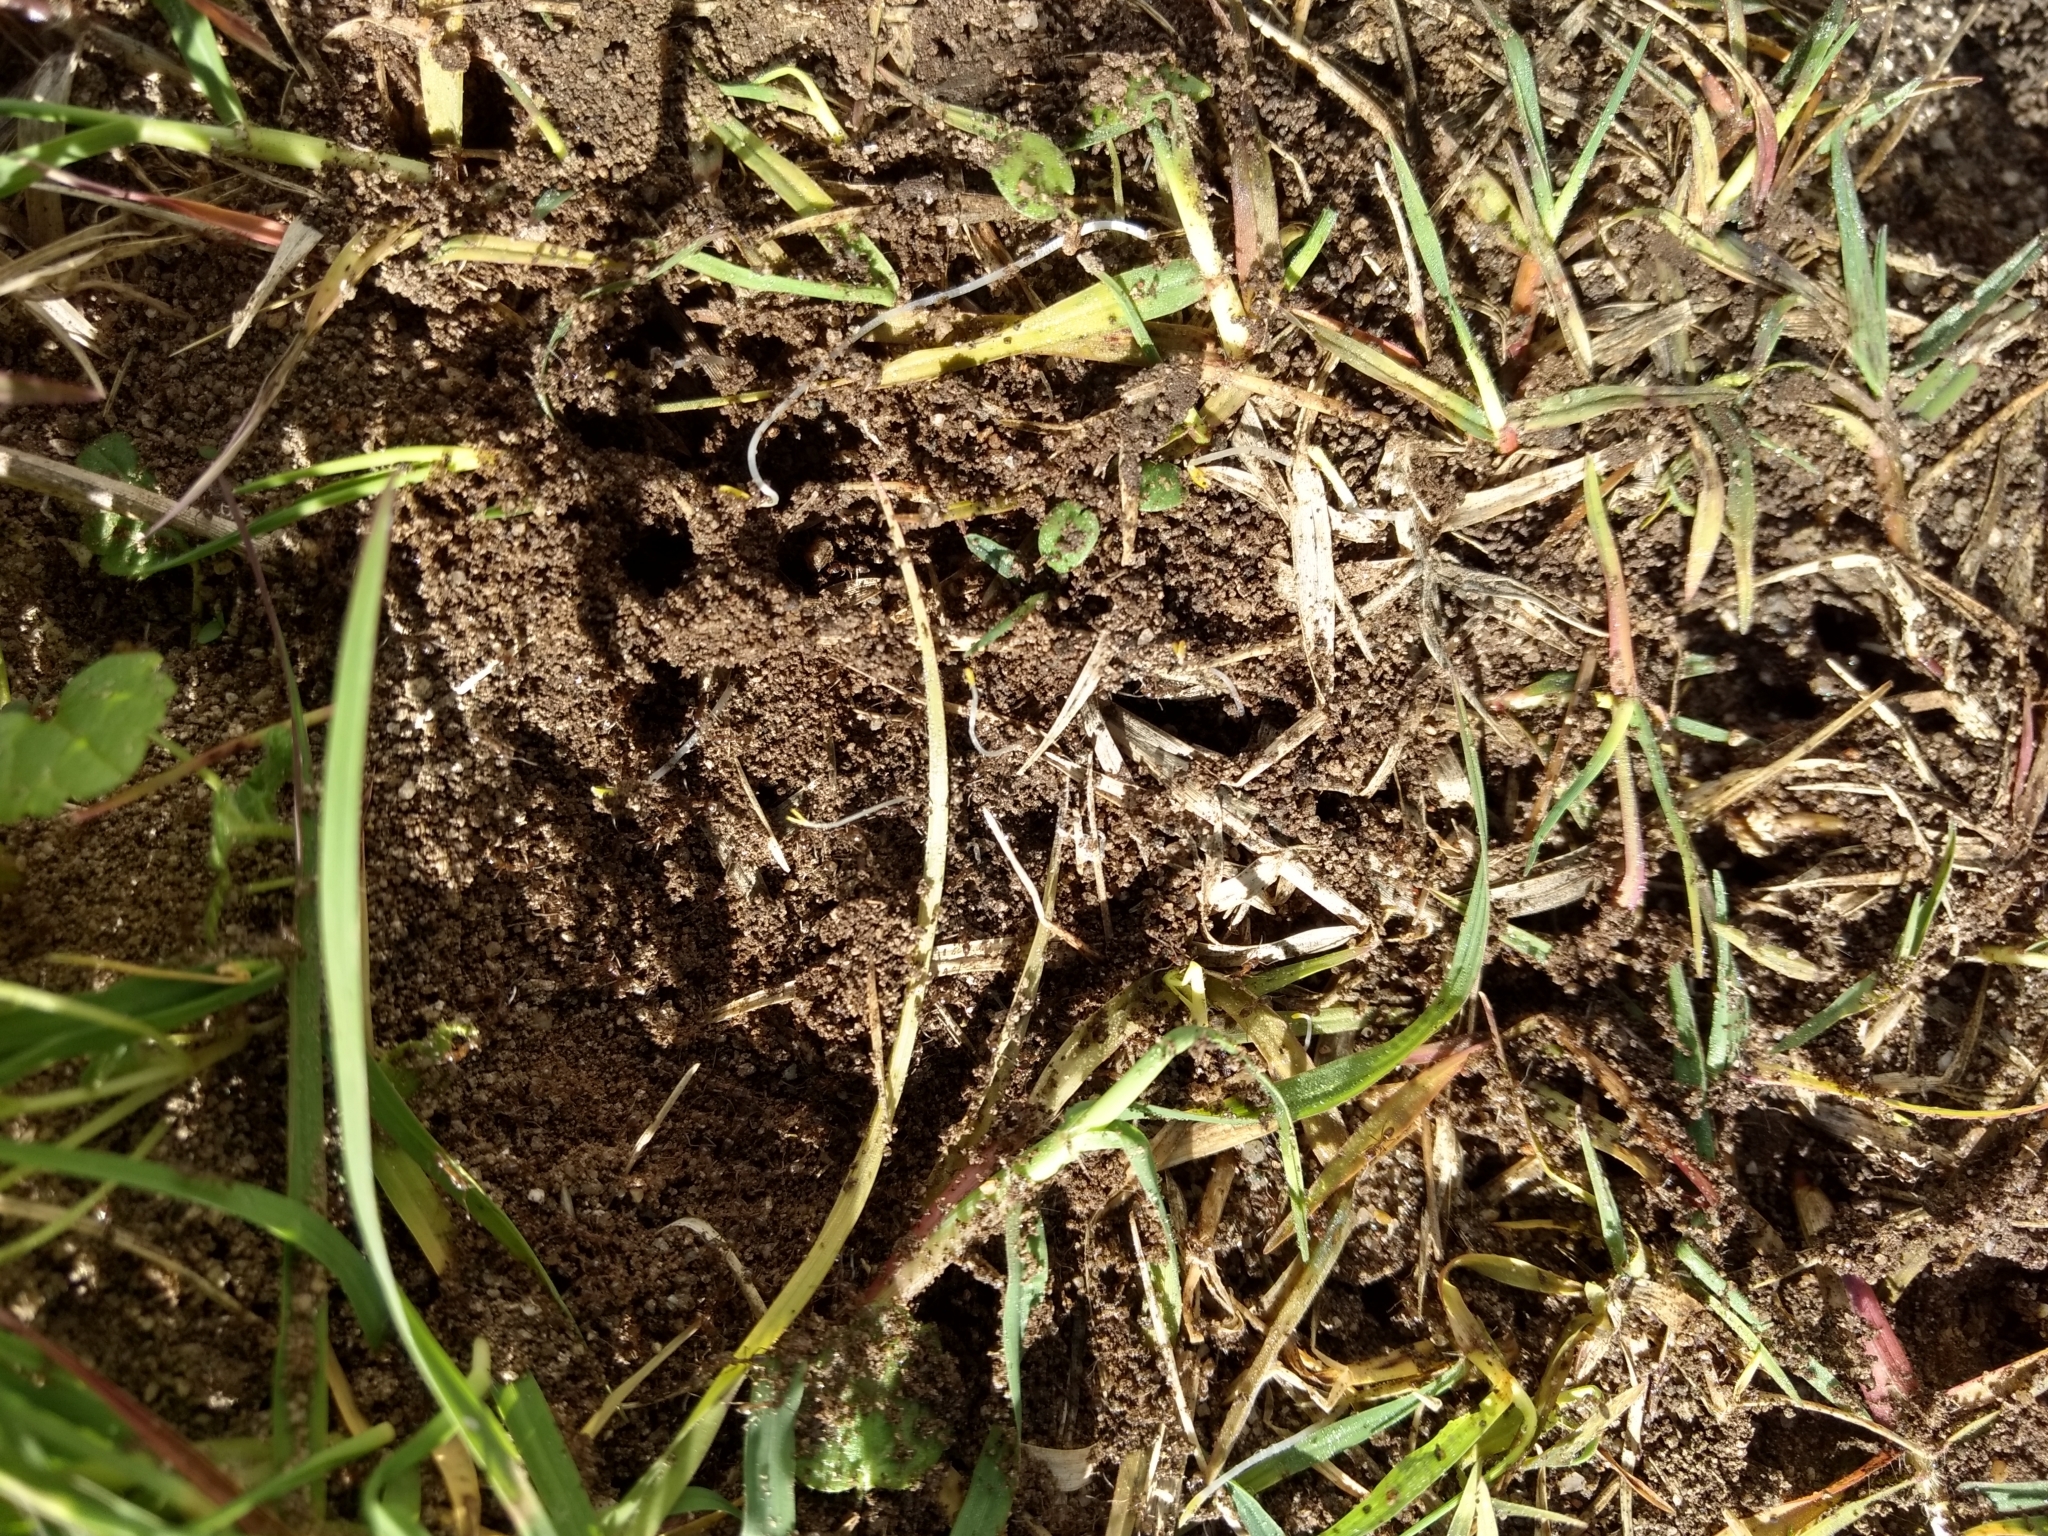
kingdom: Animalia
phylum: Arthropoda
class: Insecta
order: Hymenoptera
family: Formicidae
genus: Linepithema
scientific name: Linepithema humile
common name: Argentine ant
